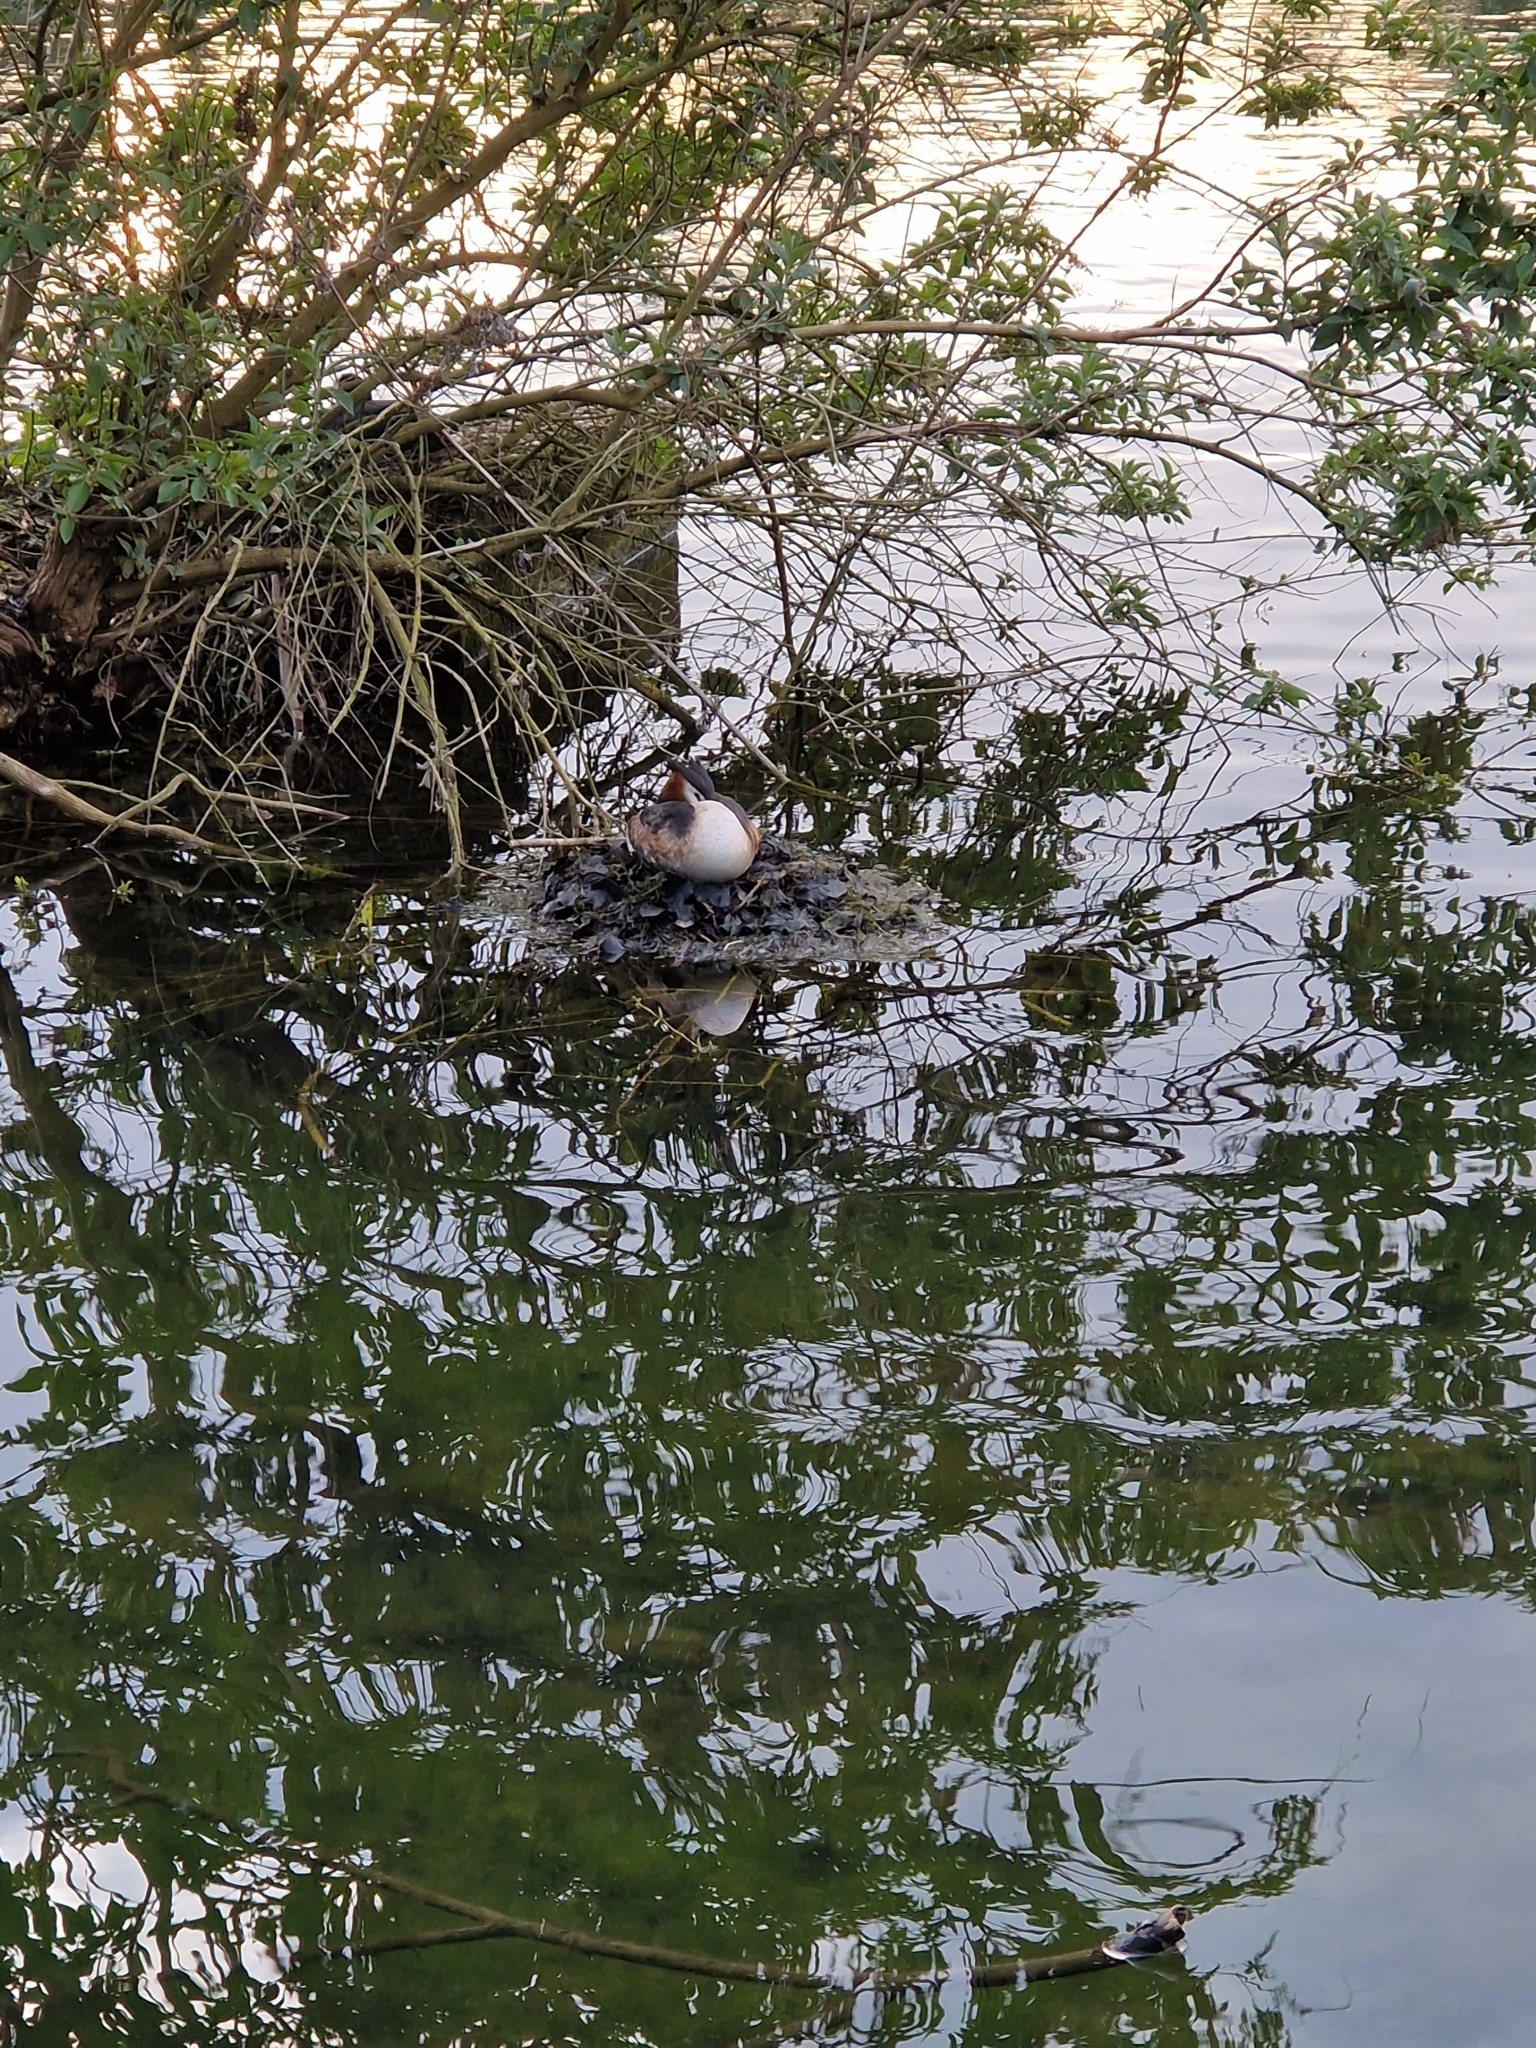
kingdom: Animalia
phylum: Chordata
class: Aves
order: Podicipediformes
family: Podicipedidae
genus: Podiceps
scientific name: Podiceps cristatus
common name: Great crested grebe
